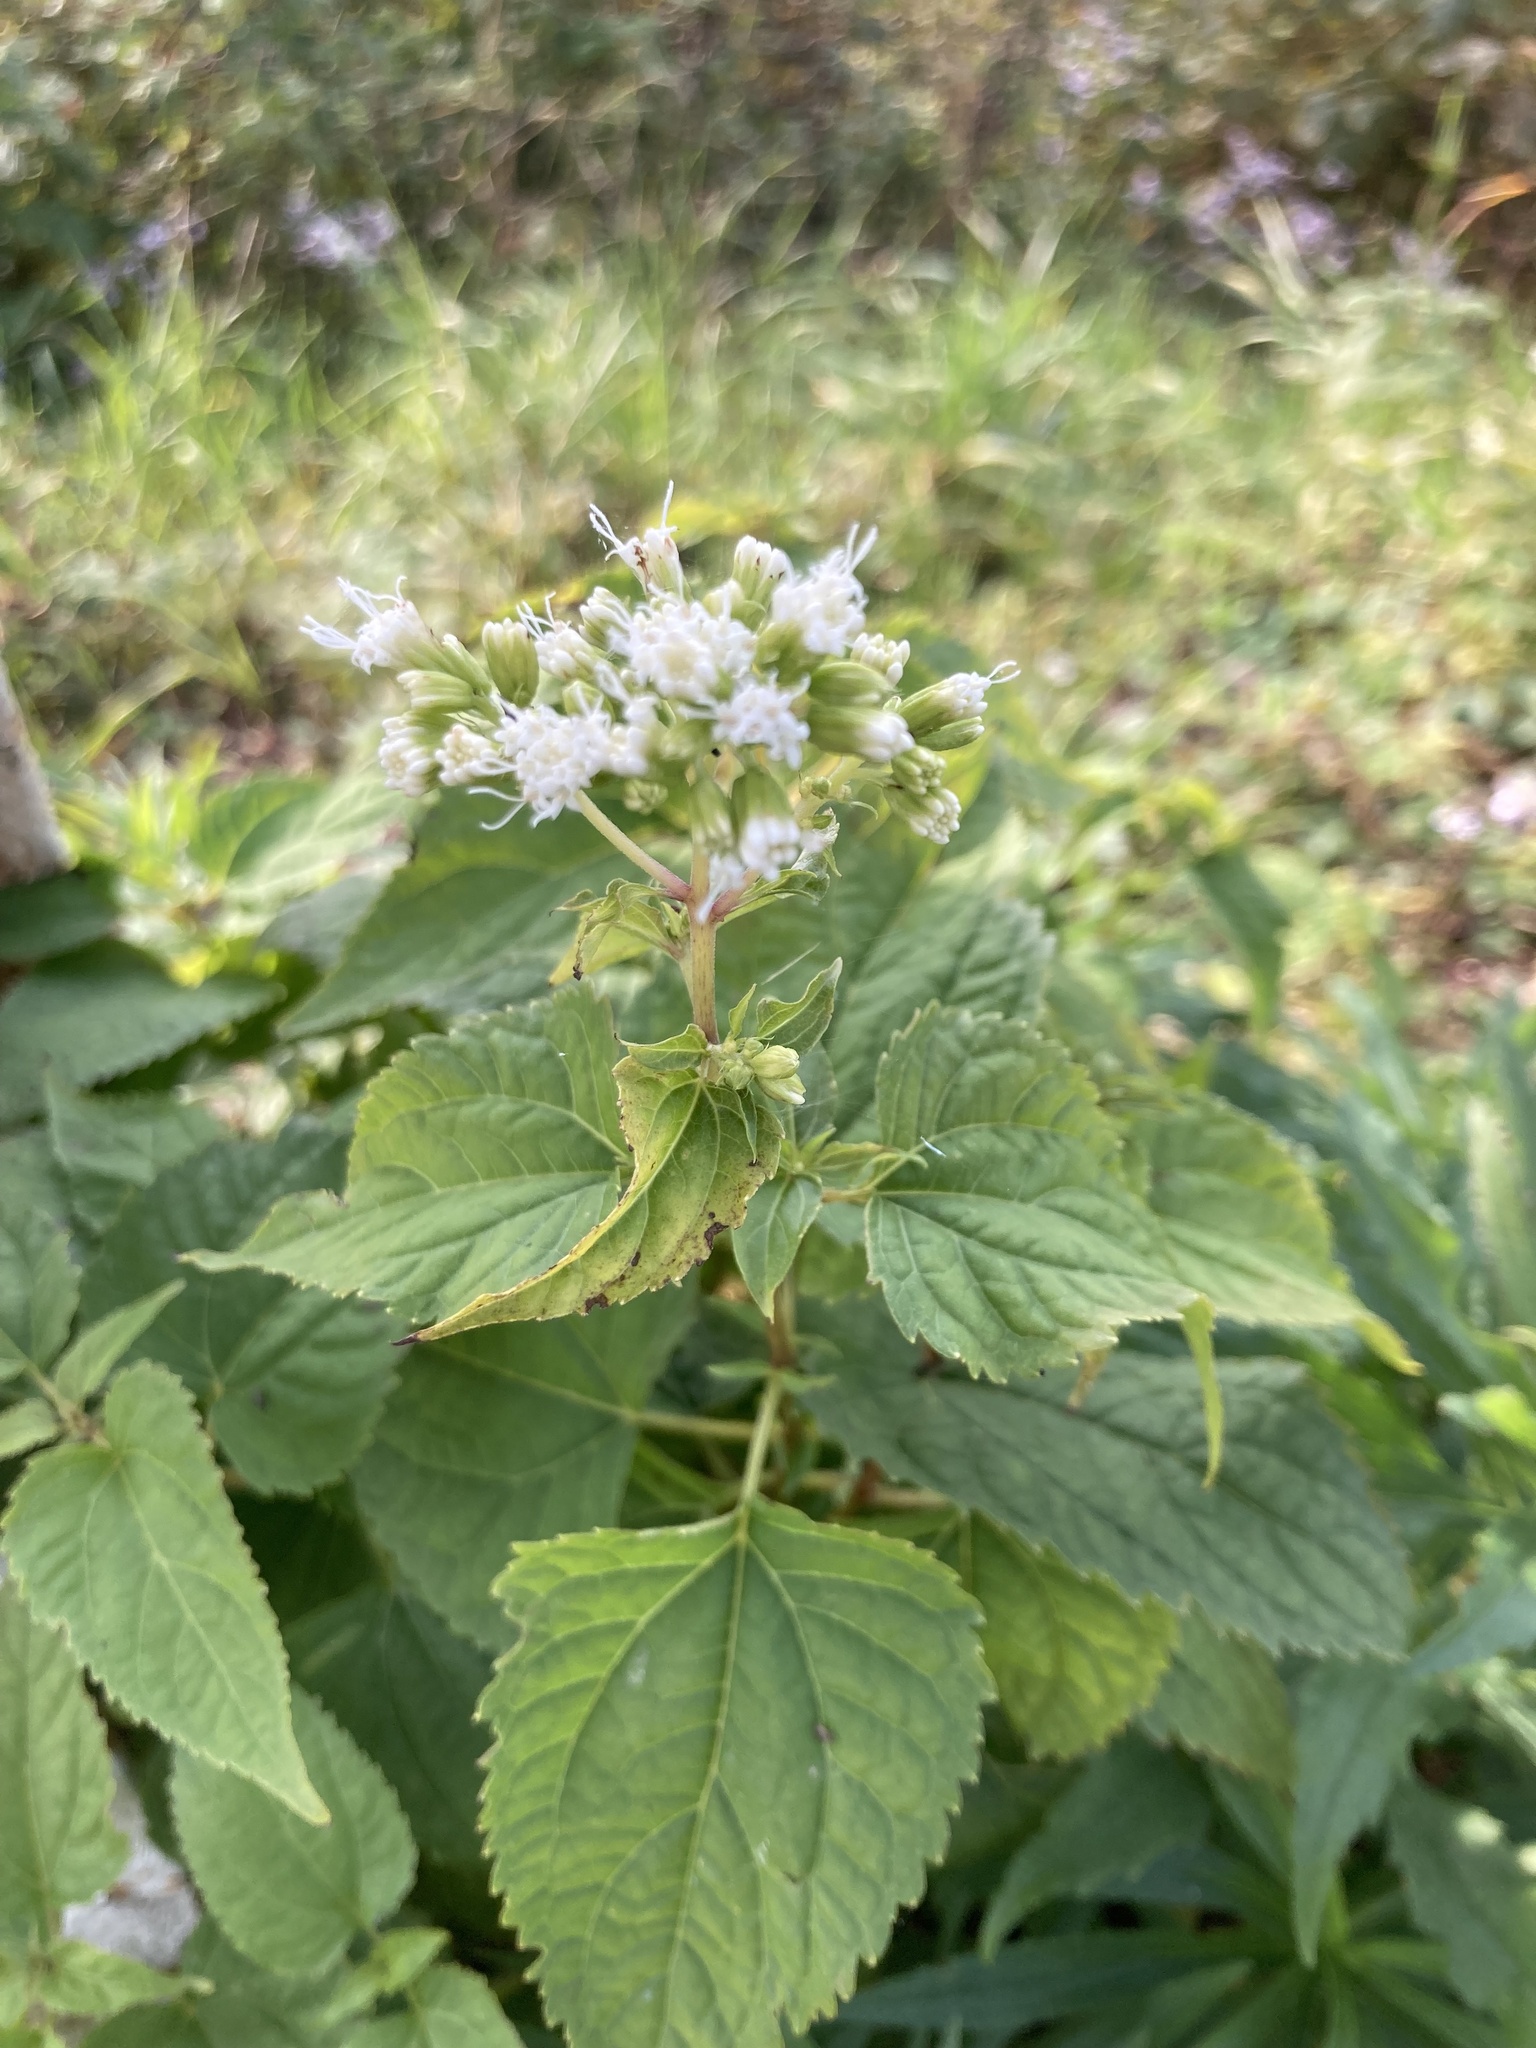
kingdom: Plantae
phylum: Tracheophyta
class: Magnoliopsida
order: Asterales
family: Asteraceae
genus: Ageratina
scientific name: Ageratina altissima
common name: White snakeroot
